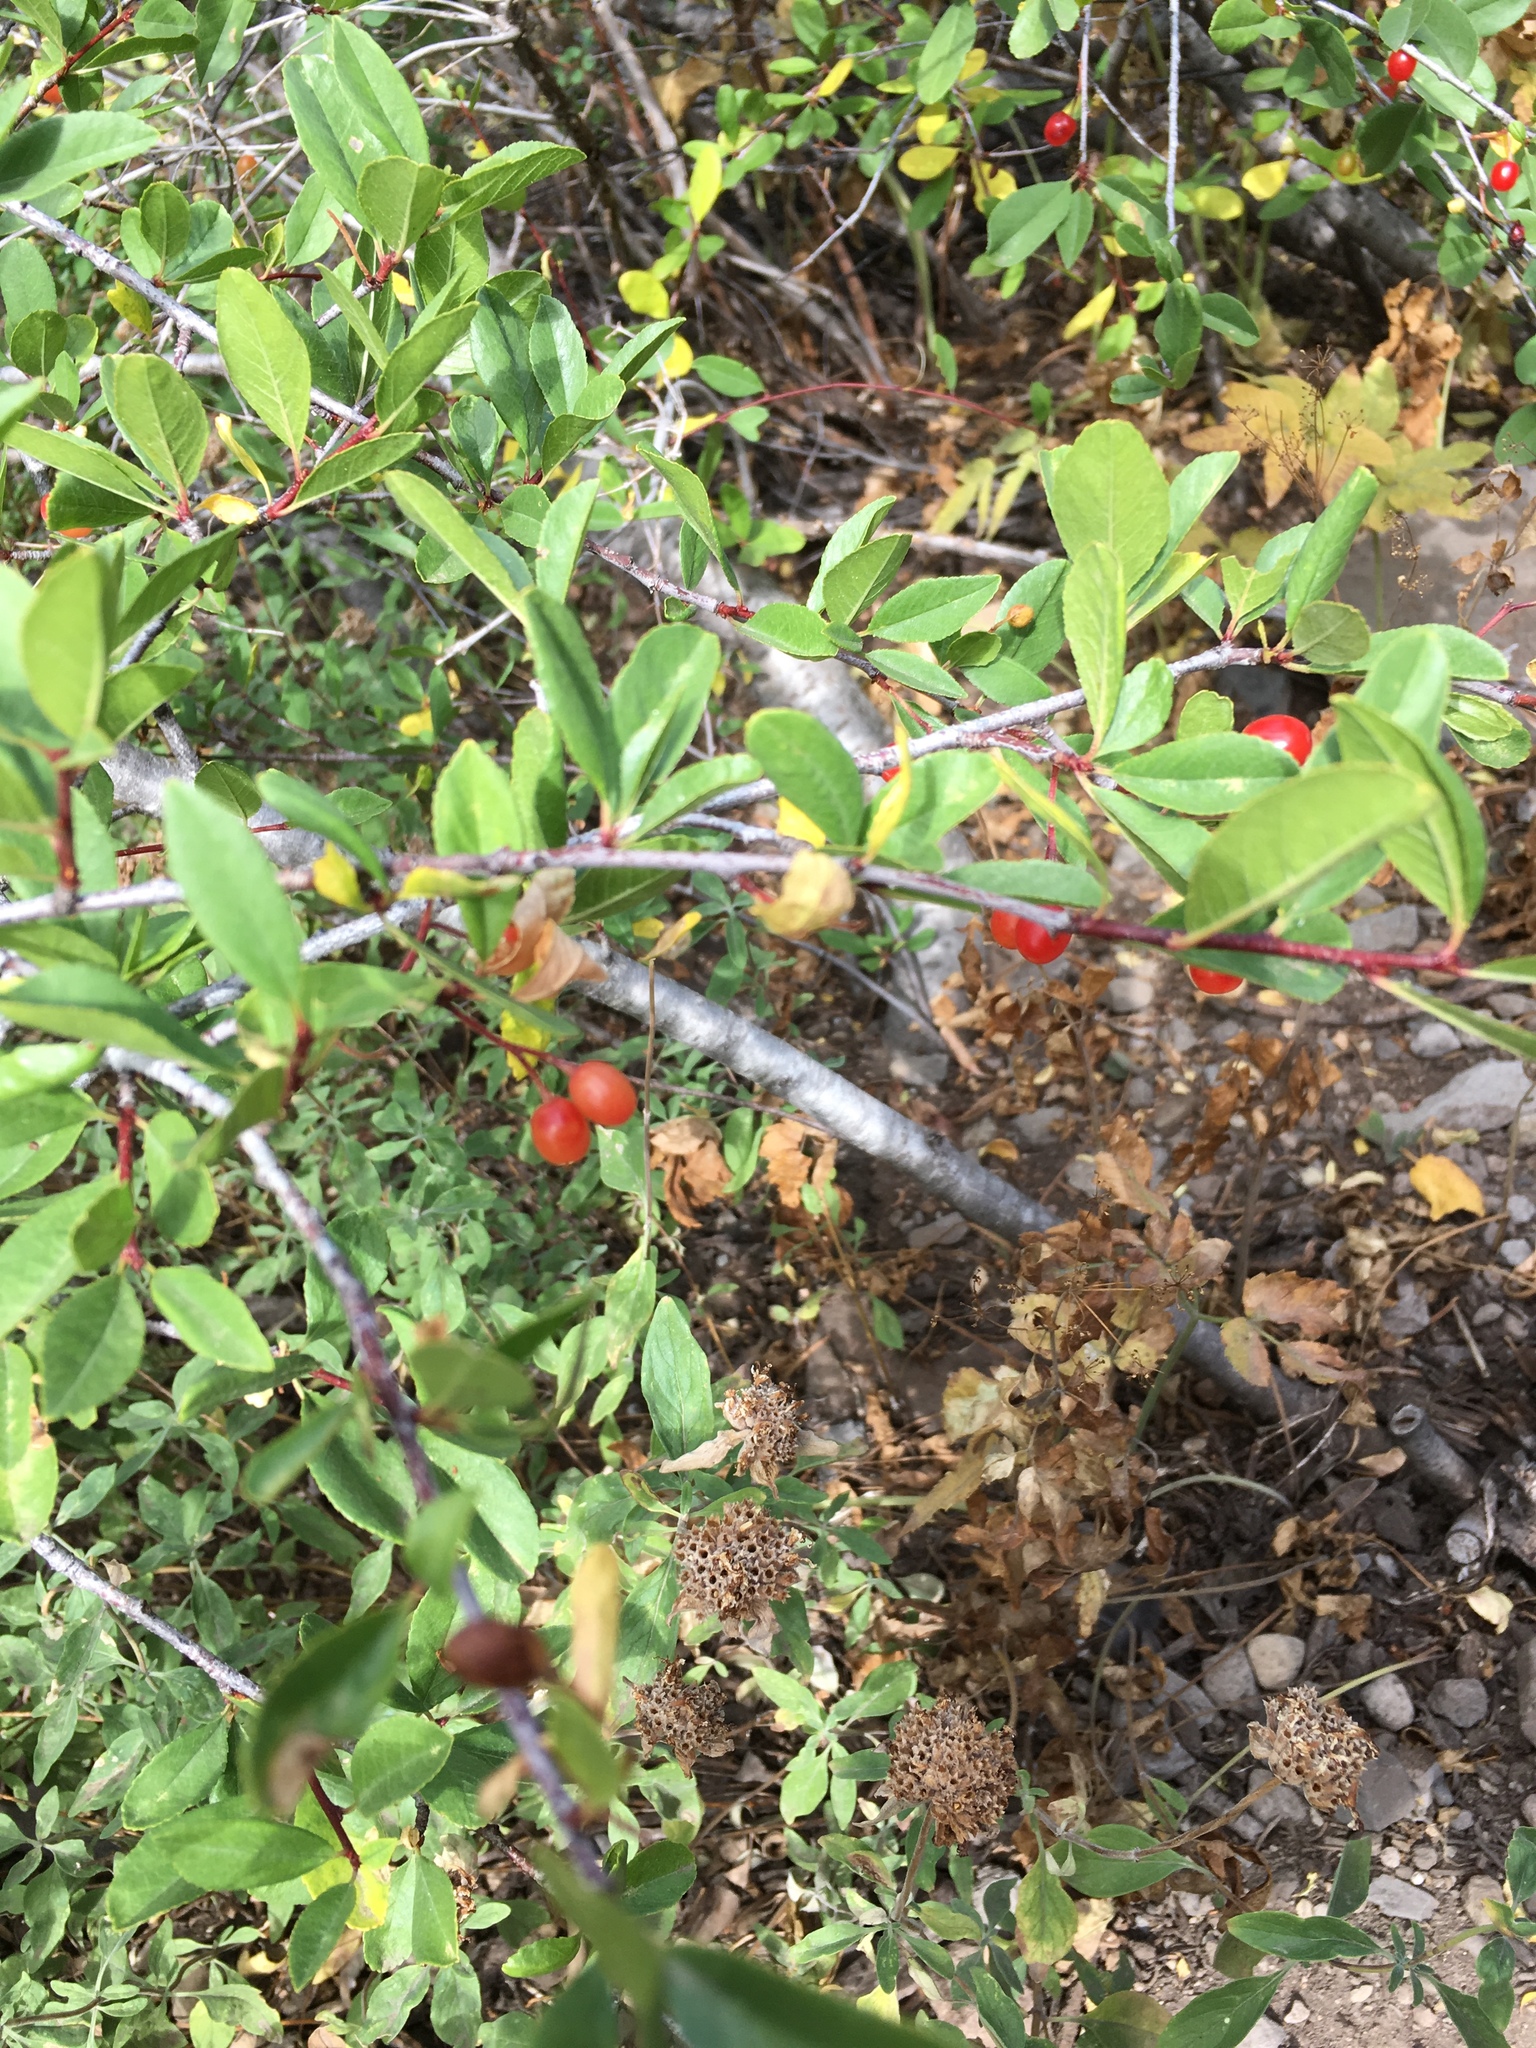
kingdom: Plantae
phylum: Tracheophyta
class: Magnoliopsida
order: Rosales
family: Rosaceae
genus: Prunus
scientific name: Prunus emarginata
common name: Bitter cherry
